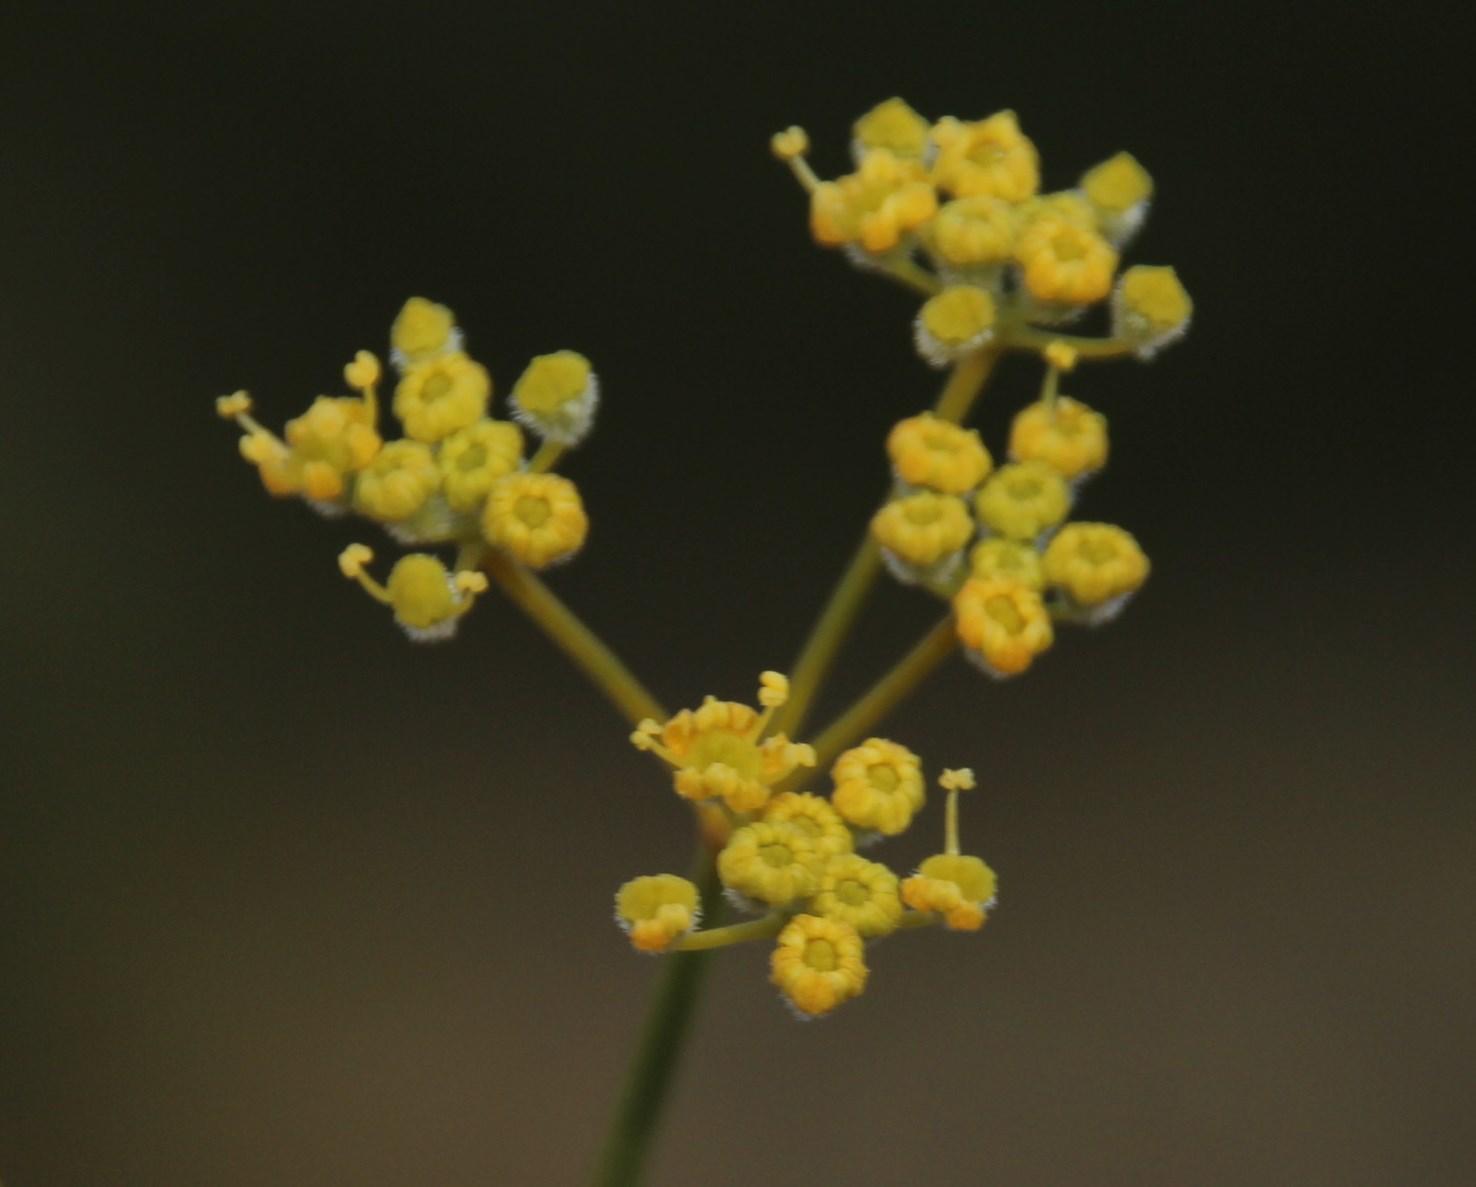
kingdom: Plantae
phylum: Tracheophyta
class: Magnoliopsida
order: Apiales
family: Apiaceae
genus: Deverra
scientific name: Deverra aphylla
